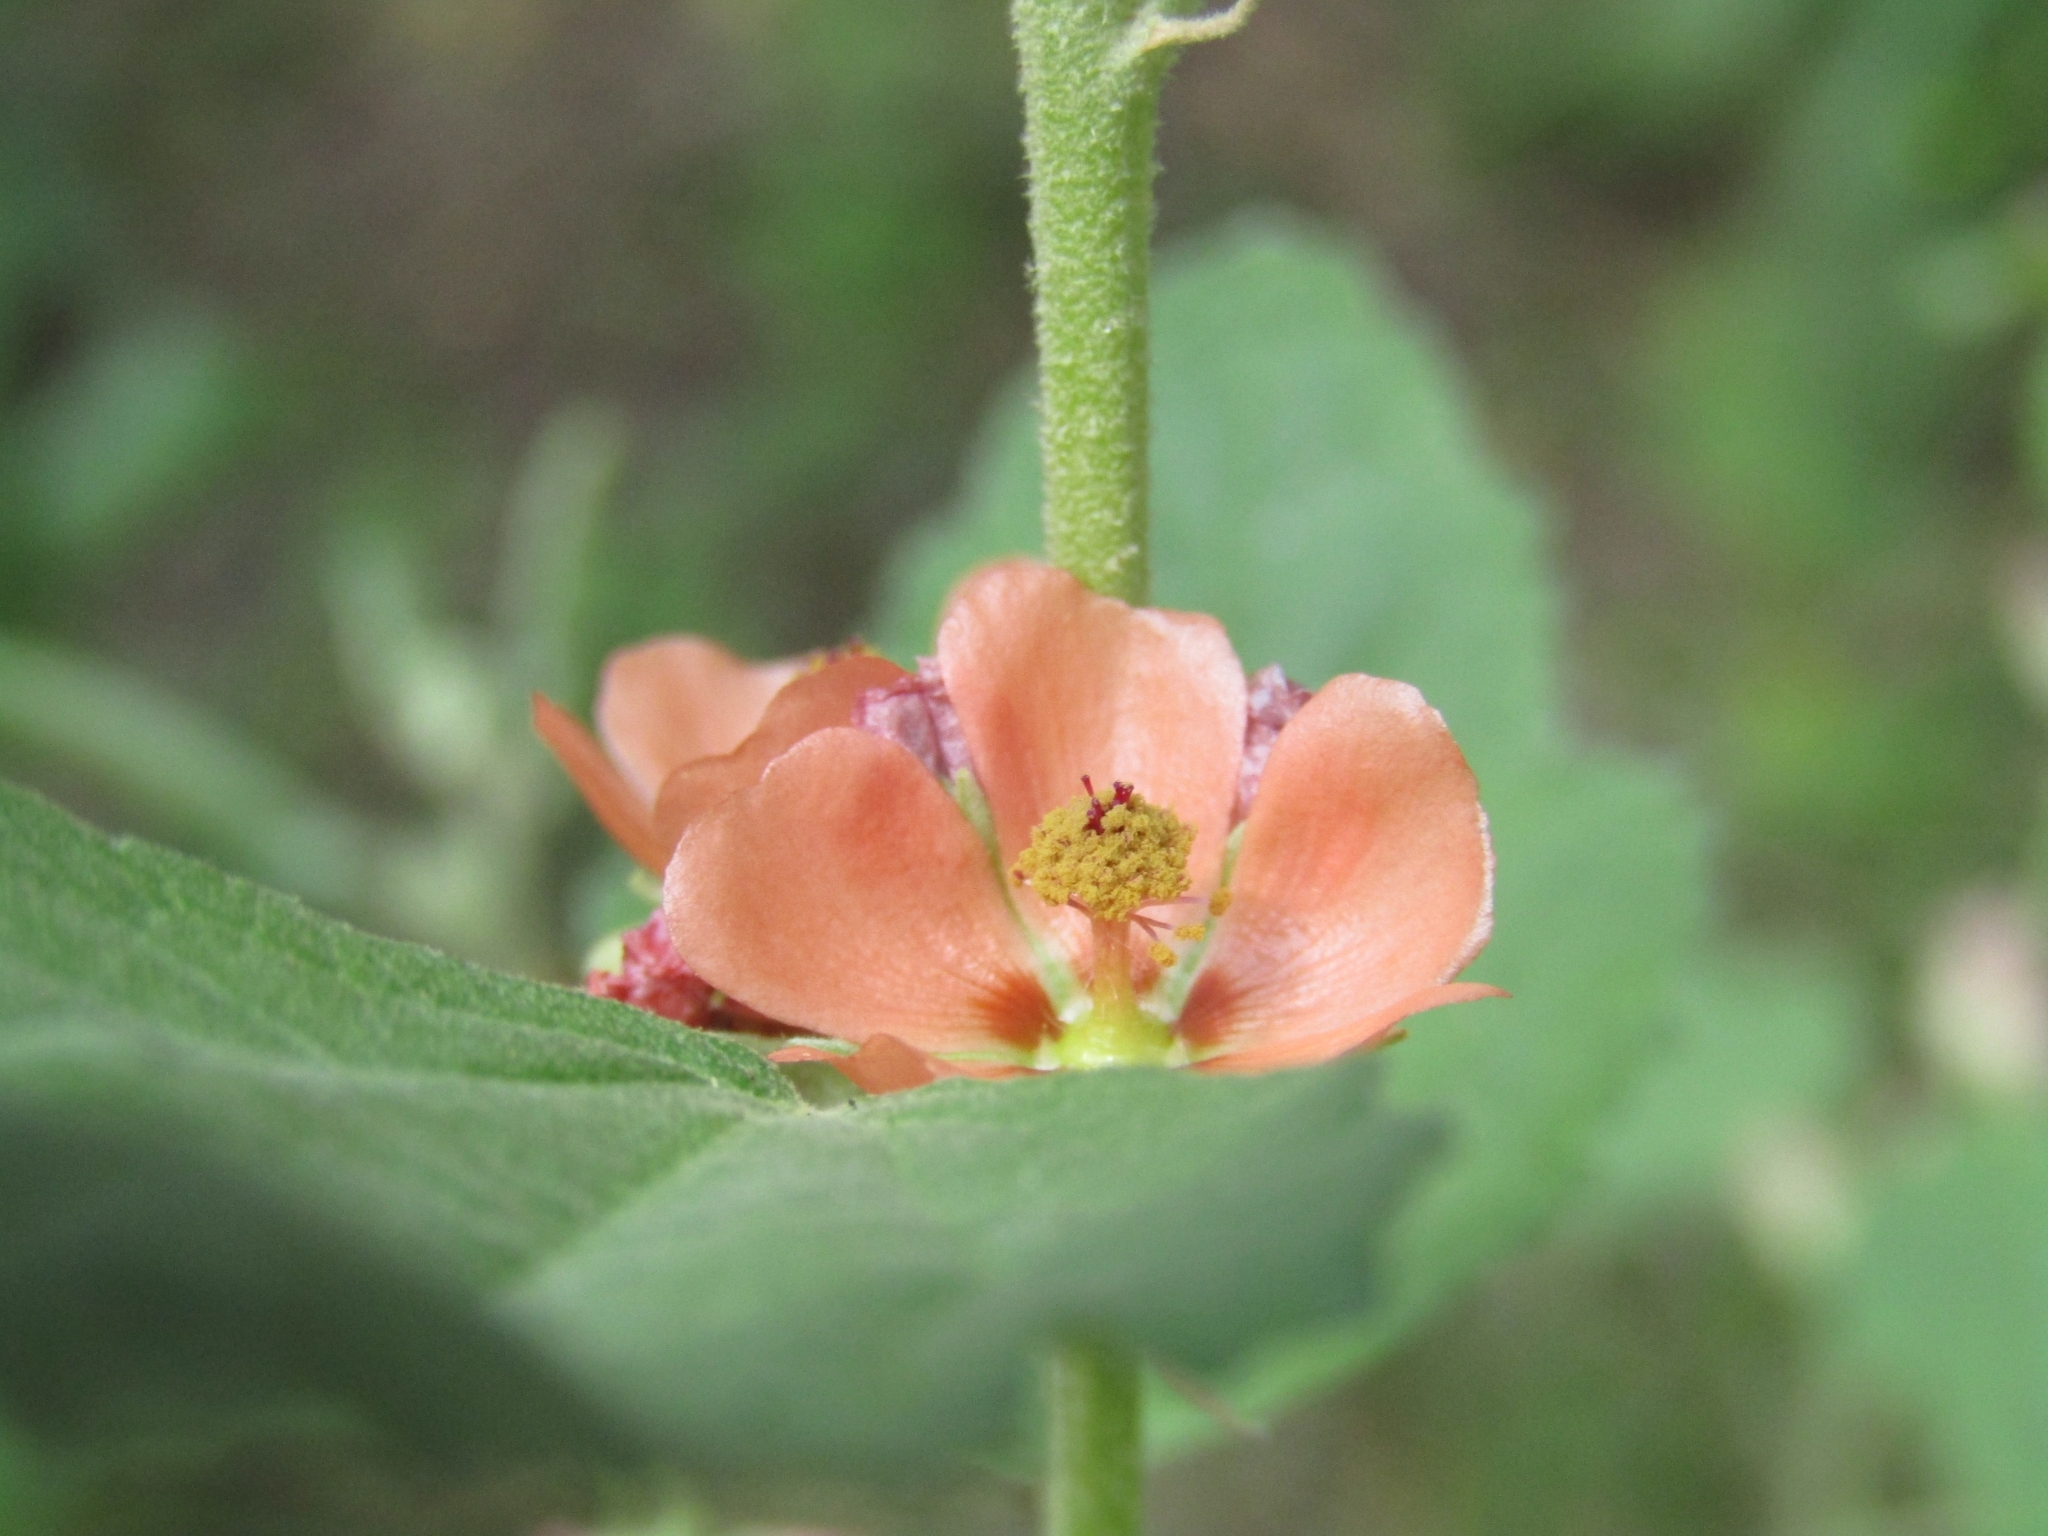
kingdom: Plantae
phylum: Tracheophyta
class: Magnoliopsida
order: Malvales
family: Malvaceae
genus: Sphaeralcea
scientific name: Sphaeralcea bonariensis
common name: Latin globemallow
